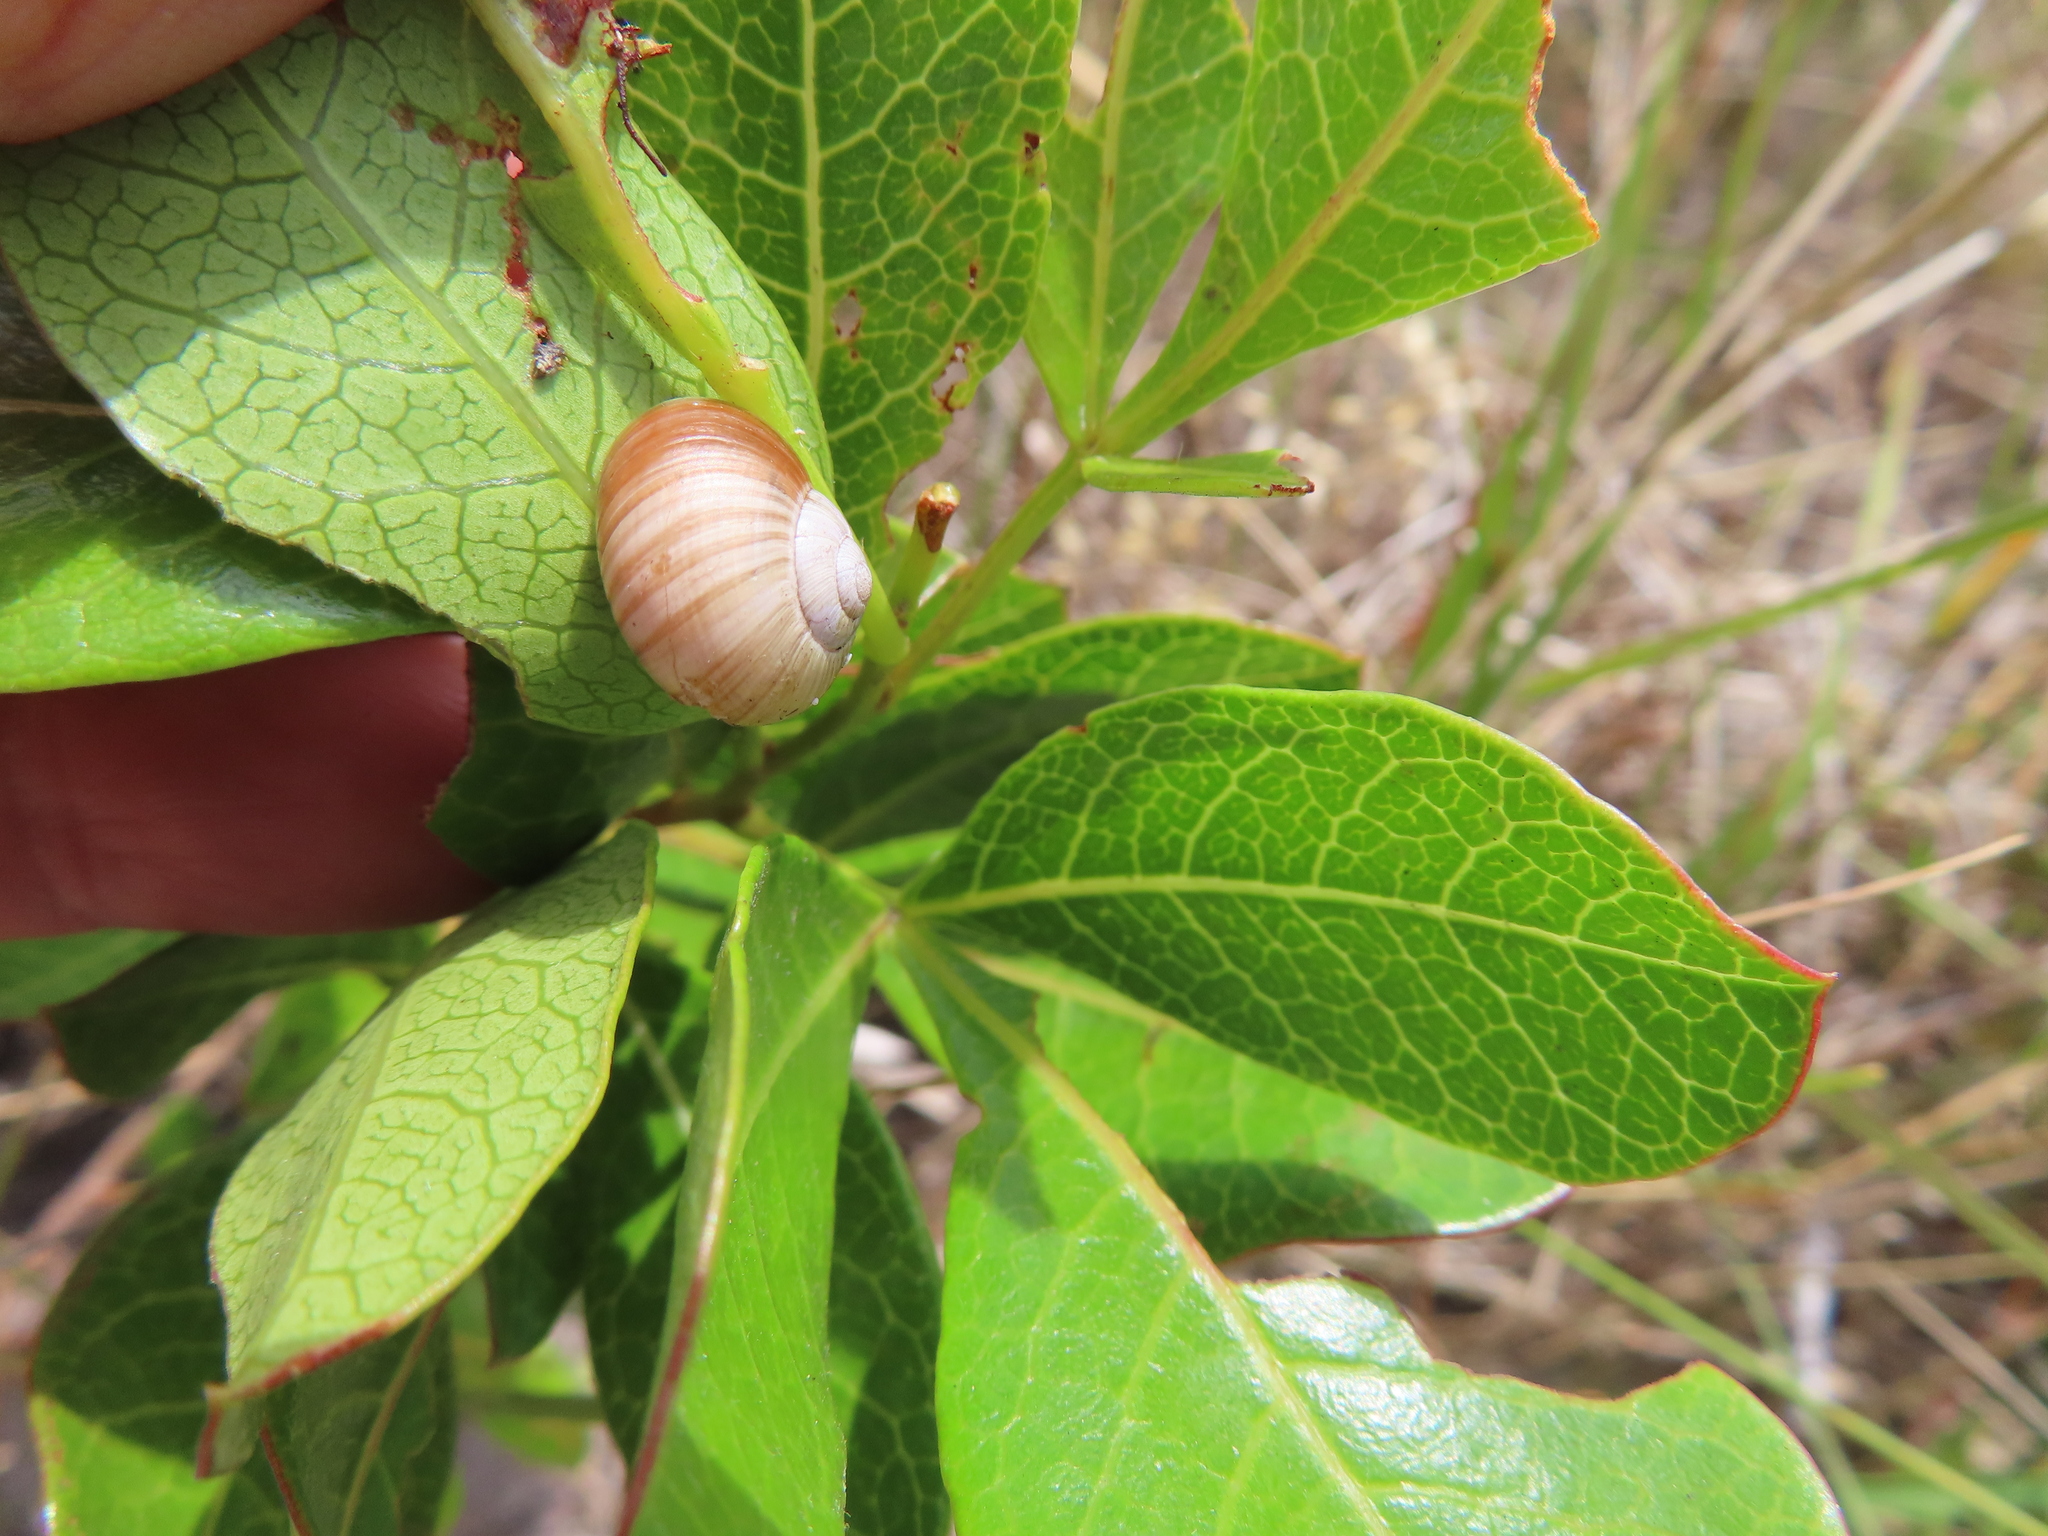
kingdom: Plantae
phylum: Tracheophyta
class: Magnoliopsida
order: Sapindales
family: Anacardiaceae
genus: Searsia
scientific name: Searsia laevigata
